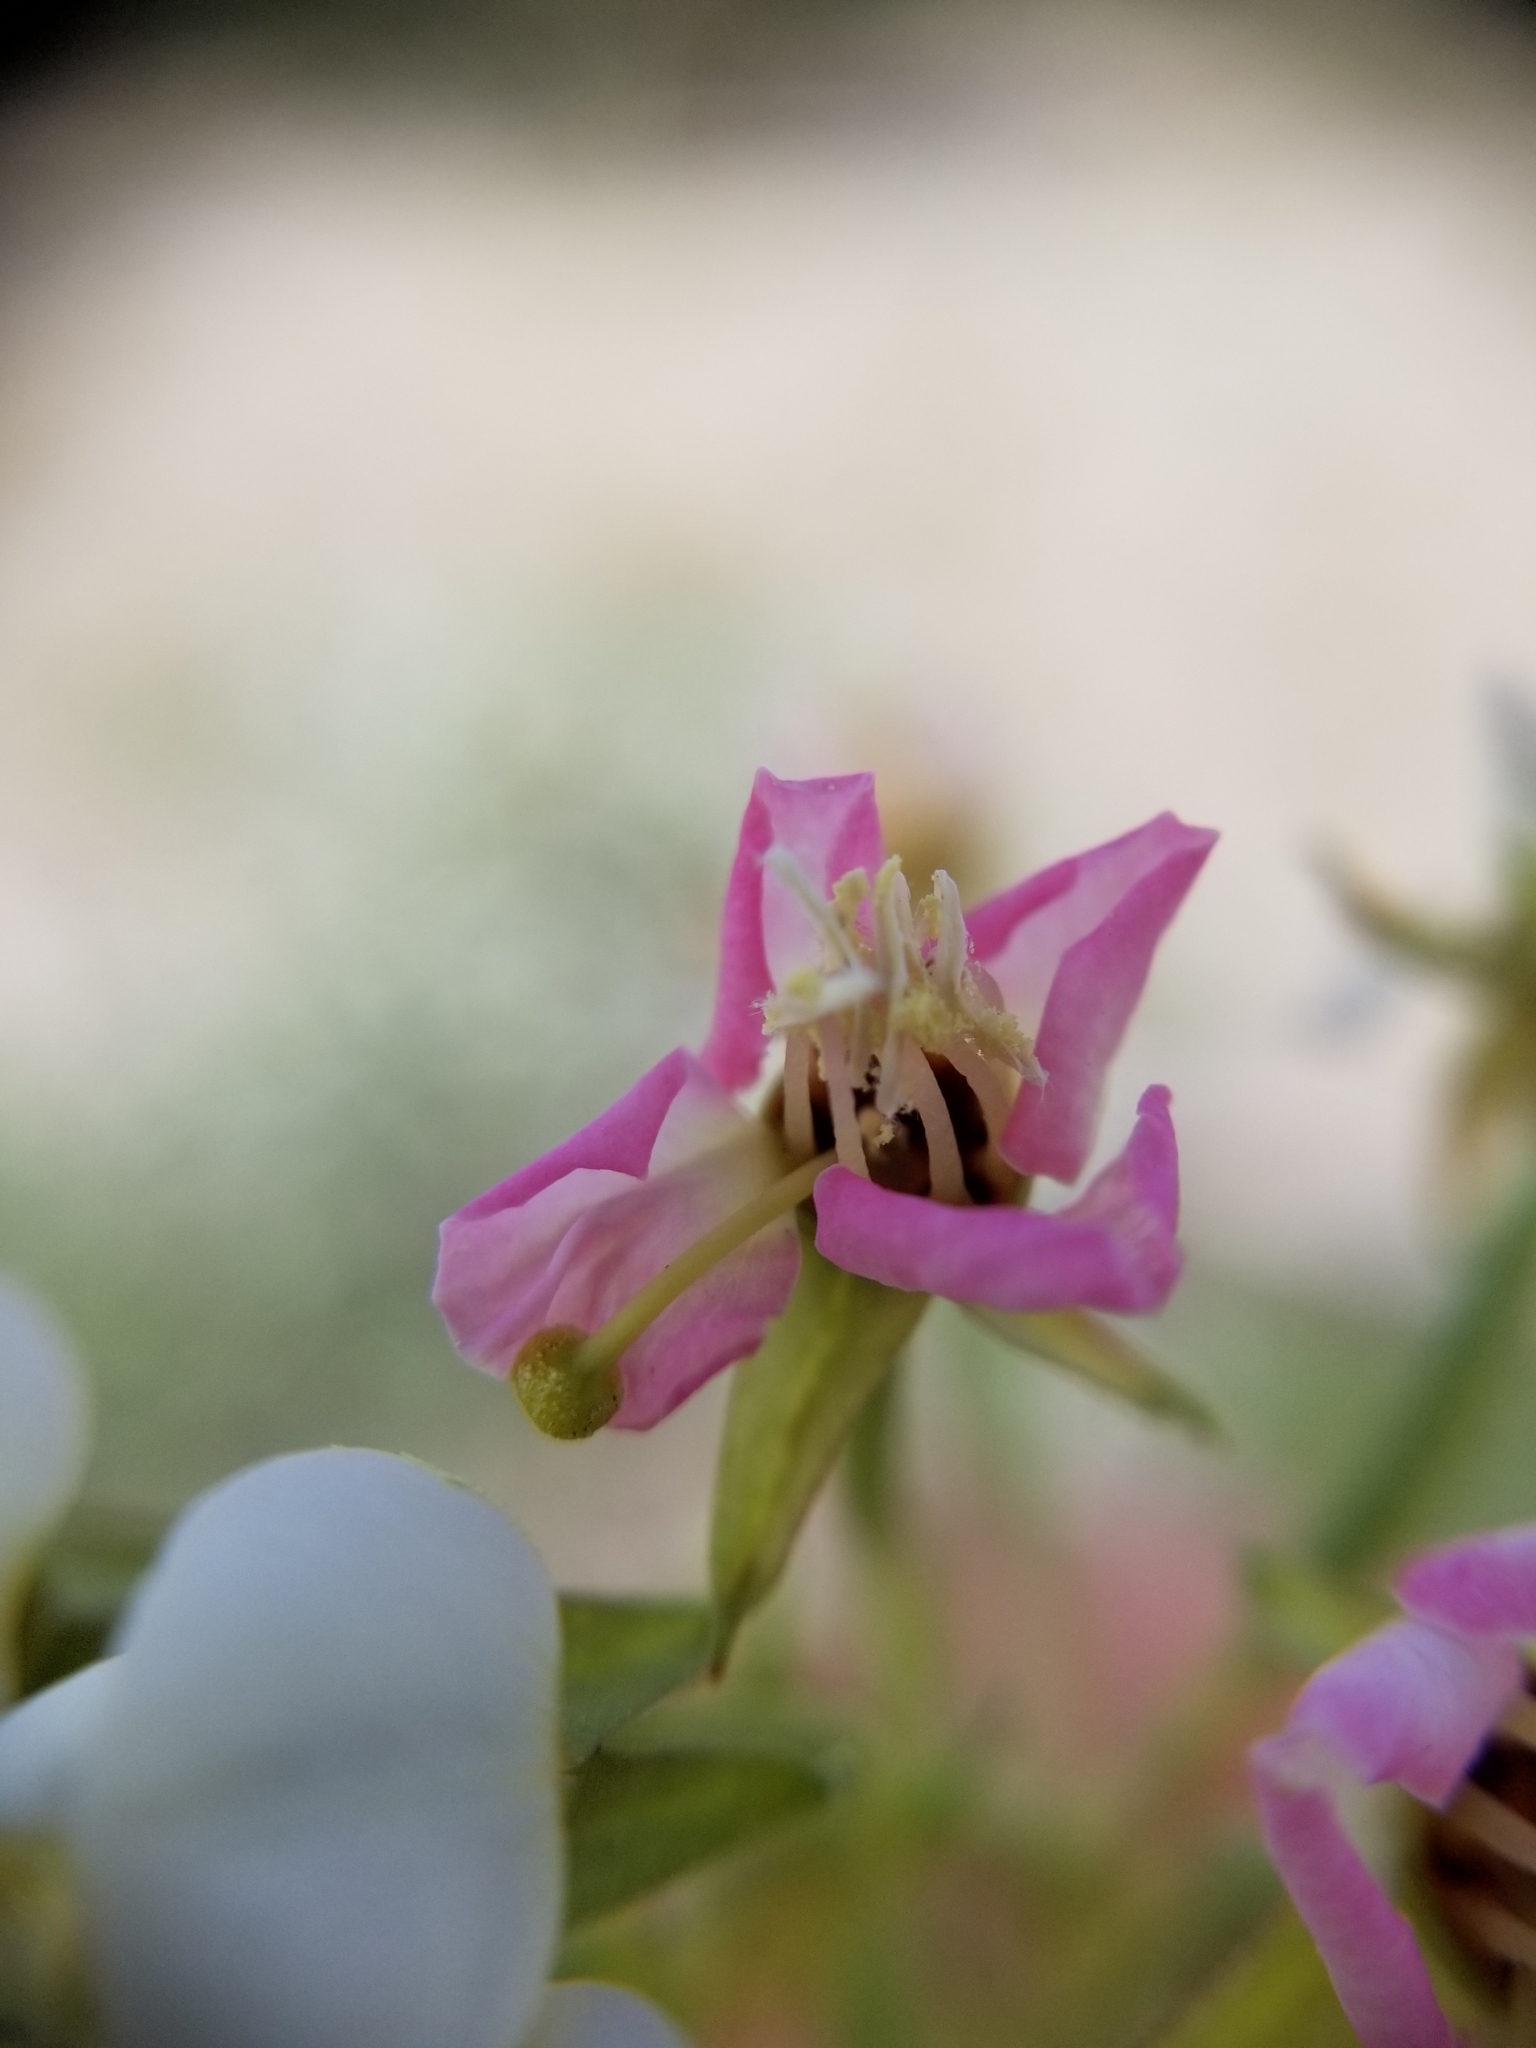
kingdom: Plantae
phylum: Tracheophyta
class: Magnoliopsida
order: Myrtales
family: Onagraceae
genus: Chylismia
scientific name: Chylismia claviformis
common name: Browneyes
